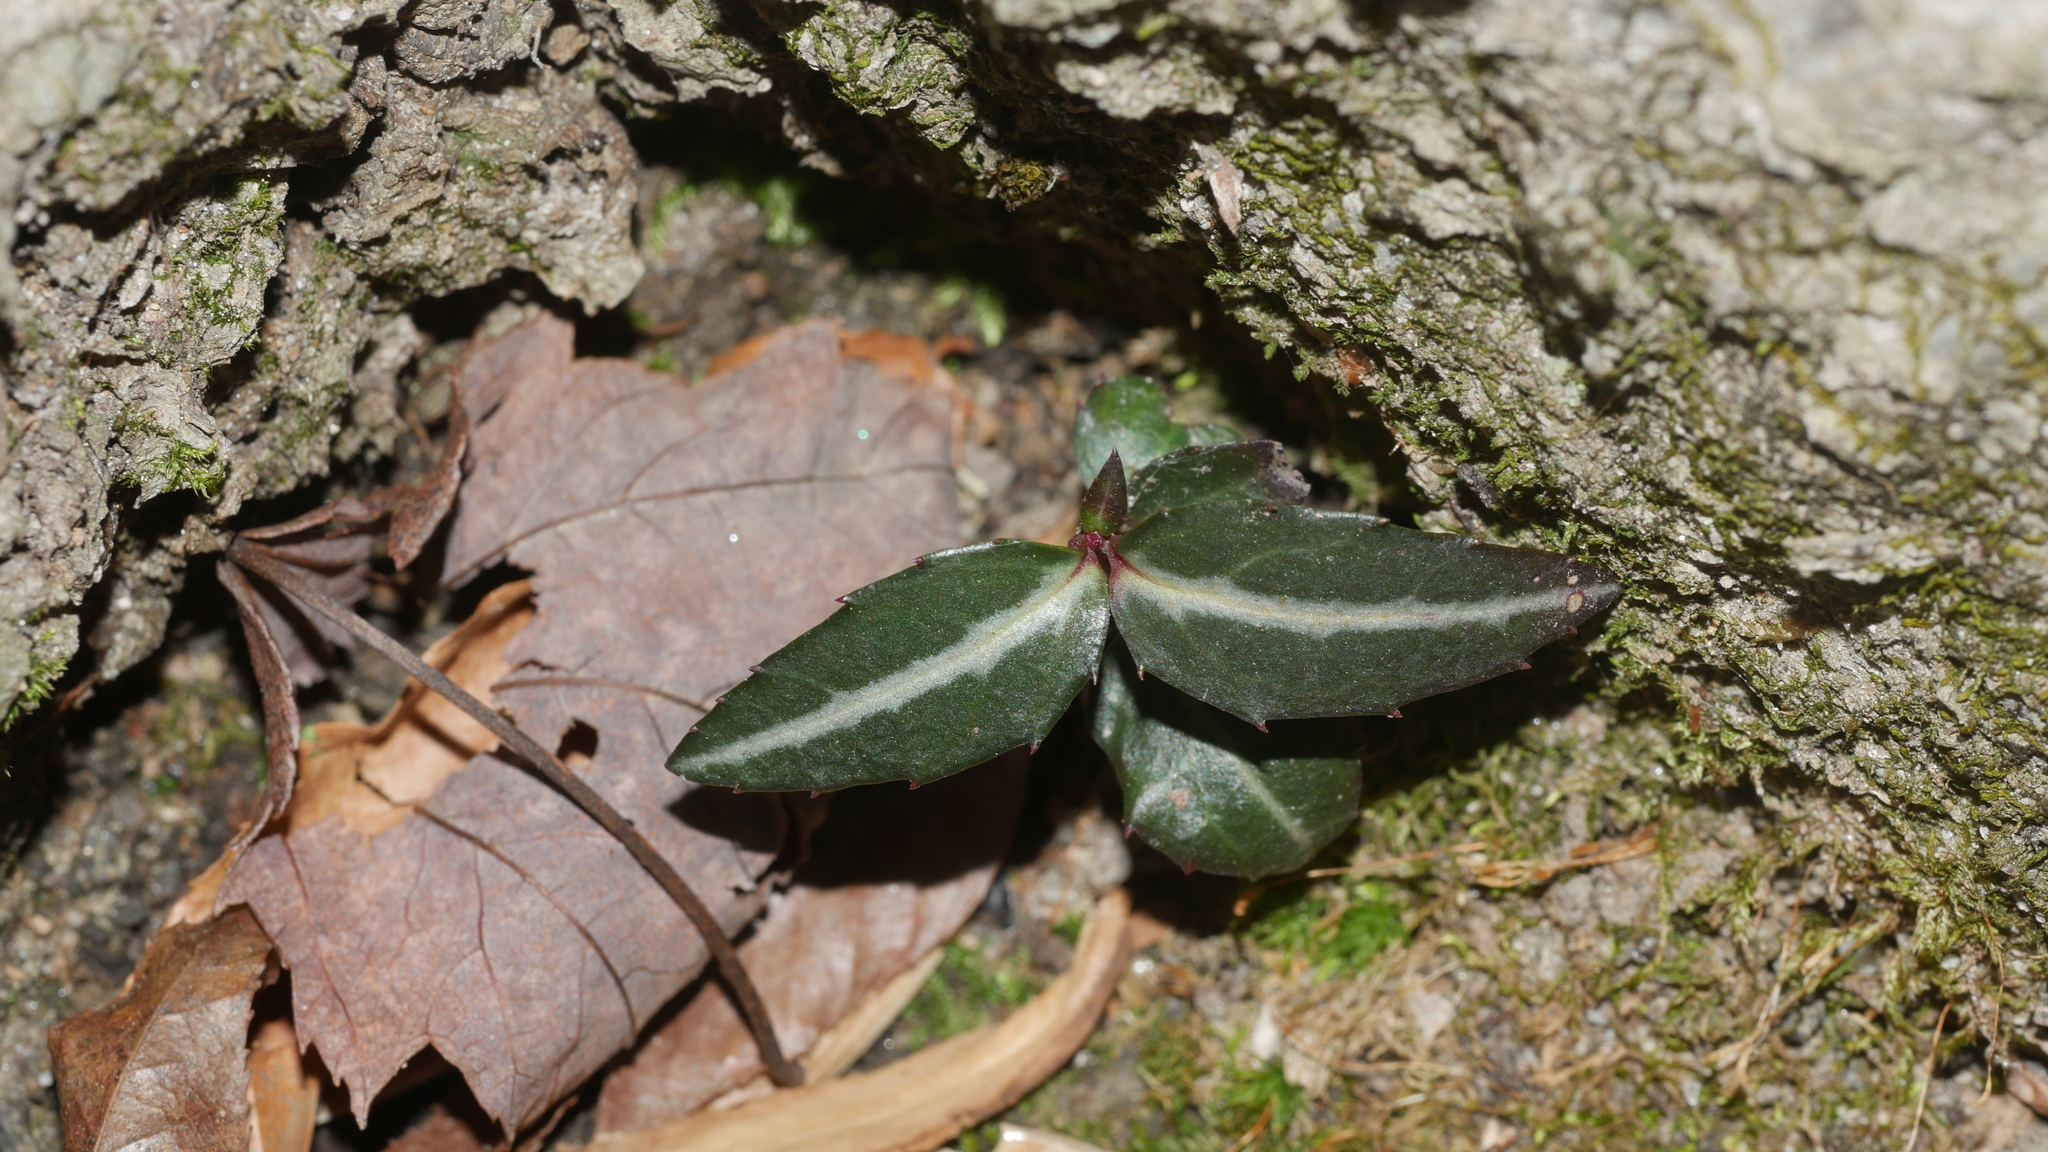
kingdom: Plantae
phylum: Tracheophyta
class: Magnoliopsida
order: Ericales
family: Ericaceae
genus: Chimaphila
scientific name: Chimaphila maculata
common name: Spotted pipsissewa
